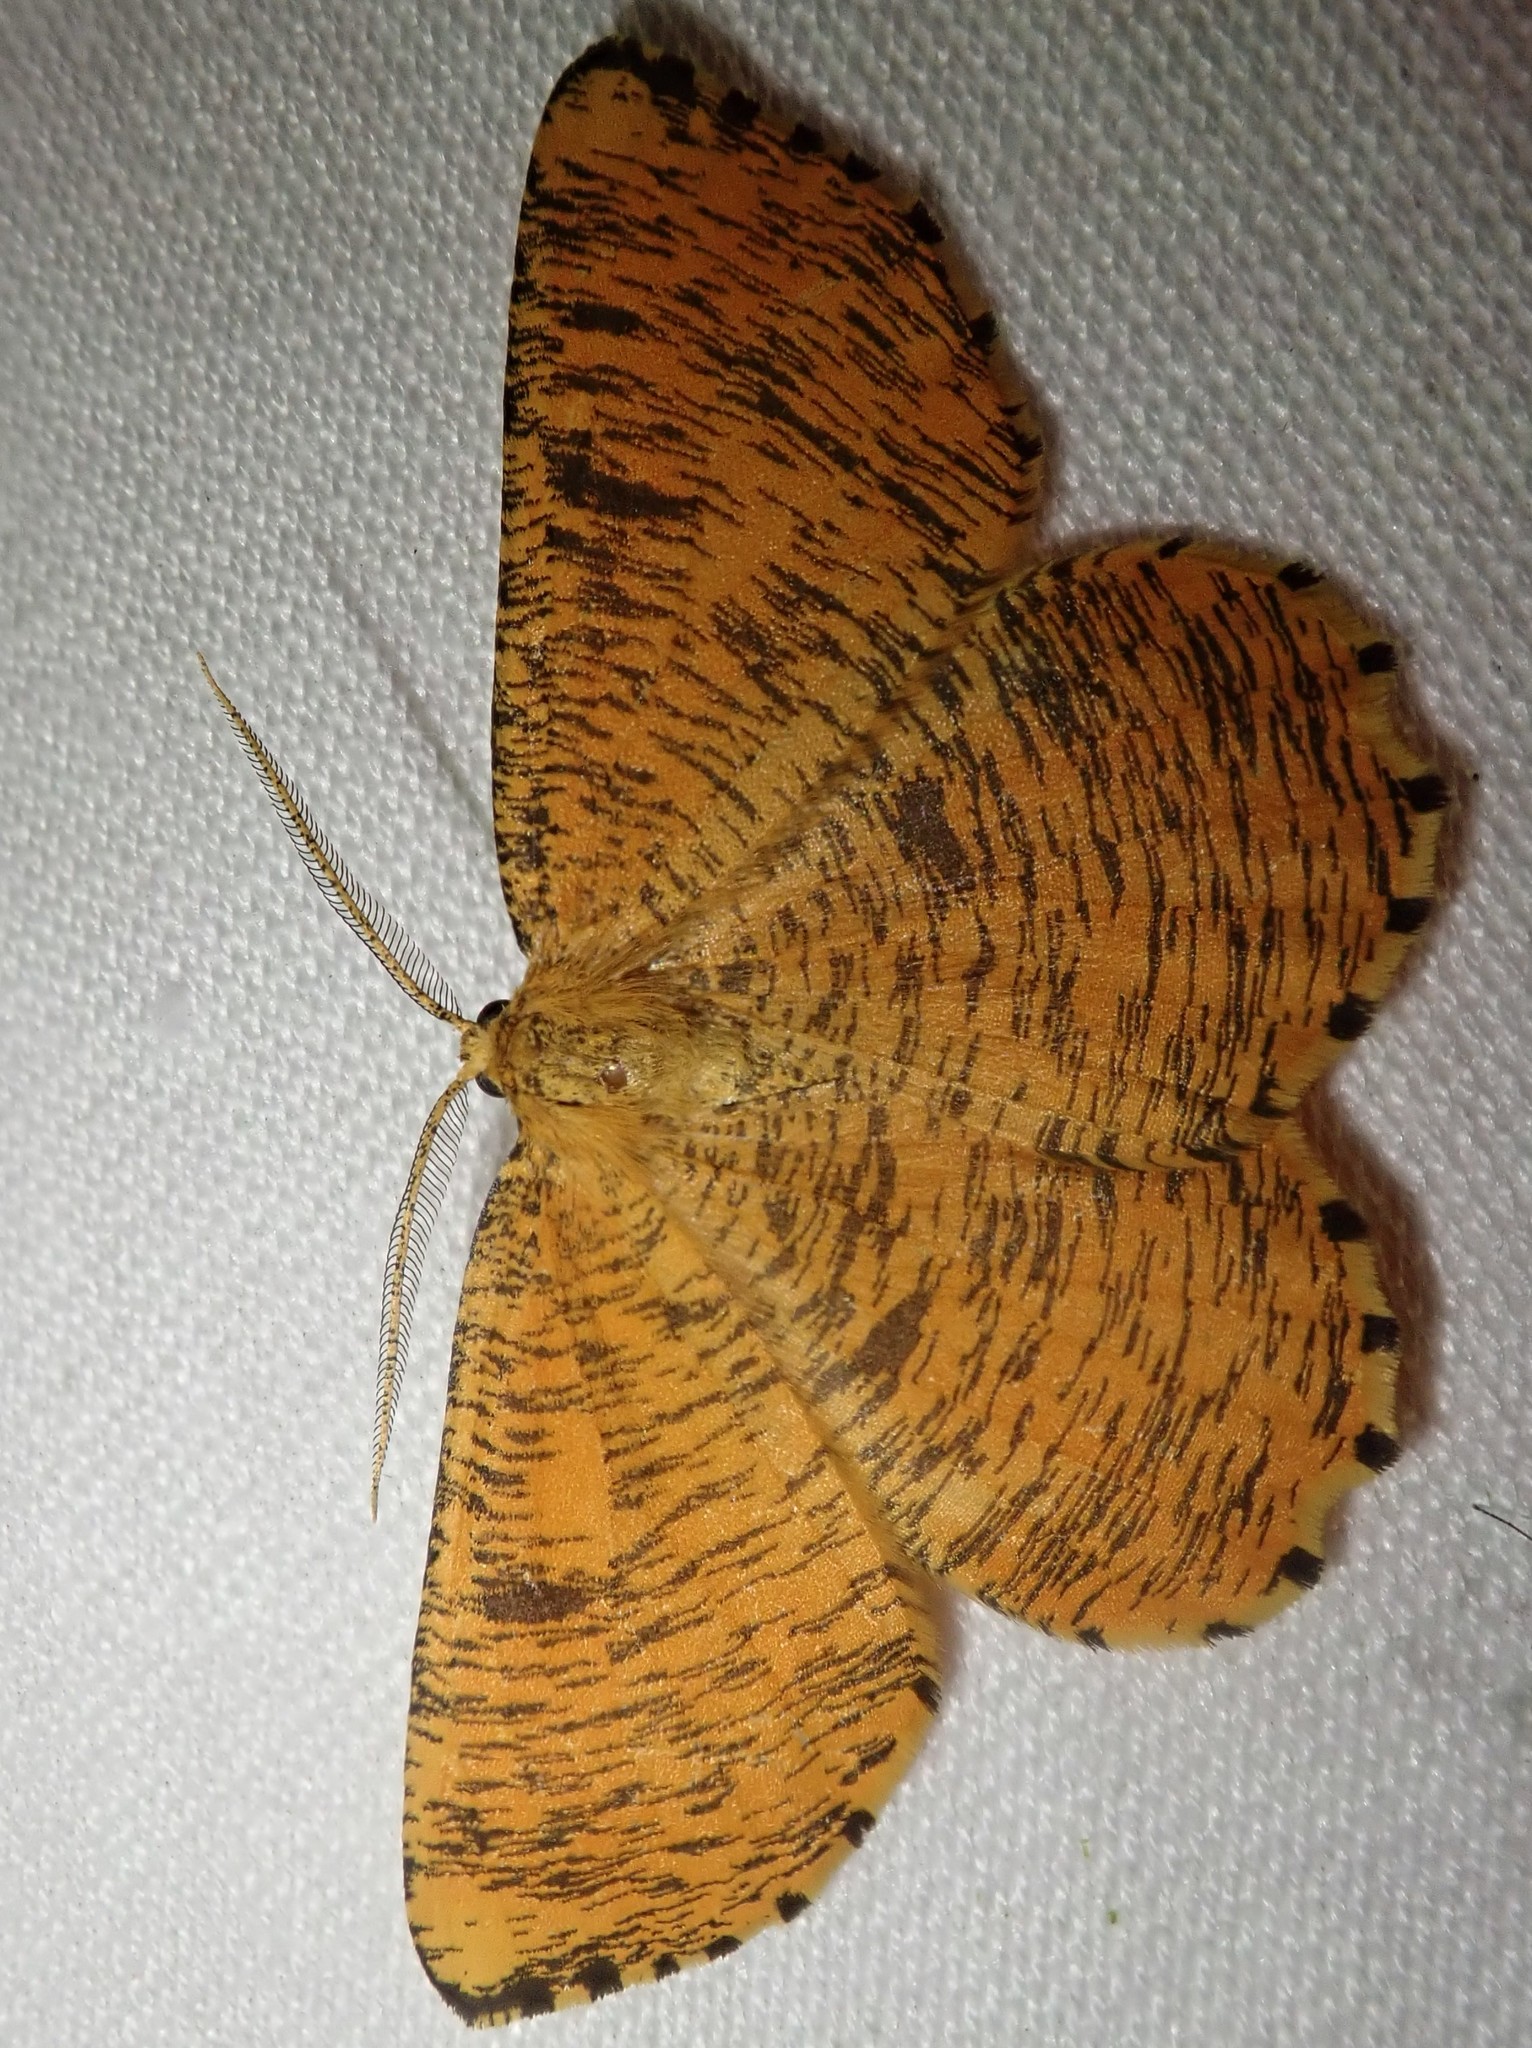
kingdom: Animalia
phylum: Arthropoda
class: Insecta
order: Lepidoptera
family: Geometridae
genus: Angerona
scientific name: Angerona prunaria
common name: Orange moth
